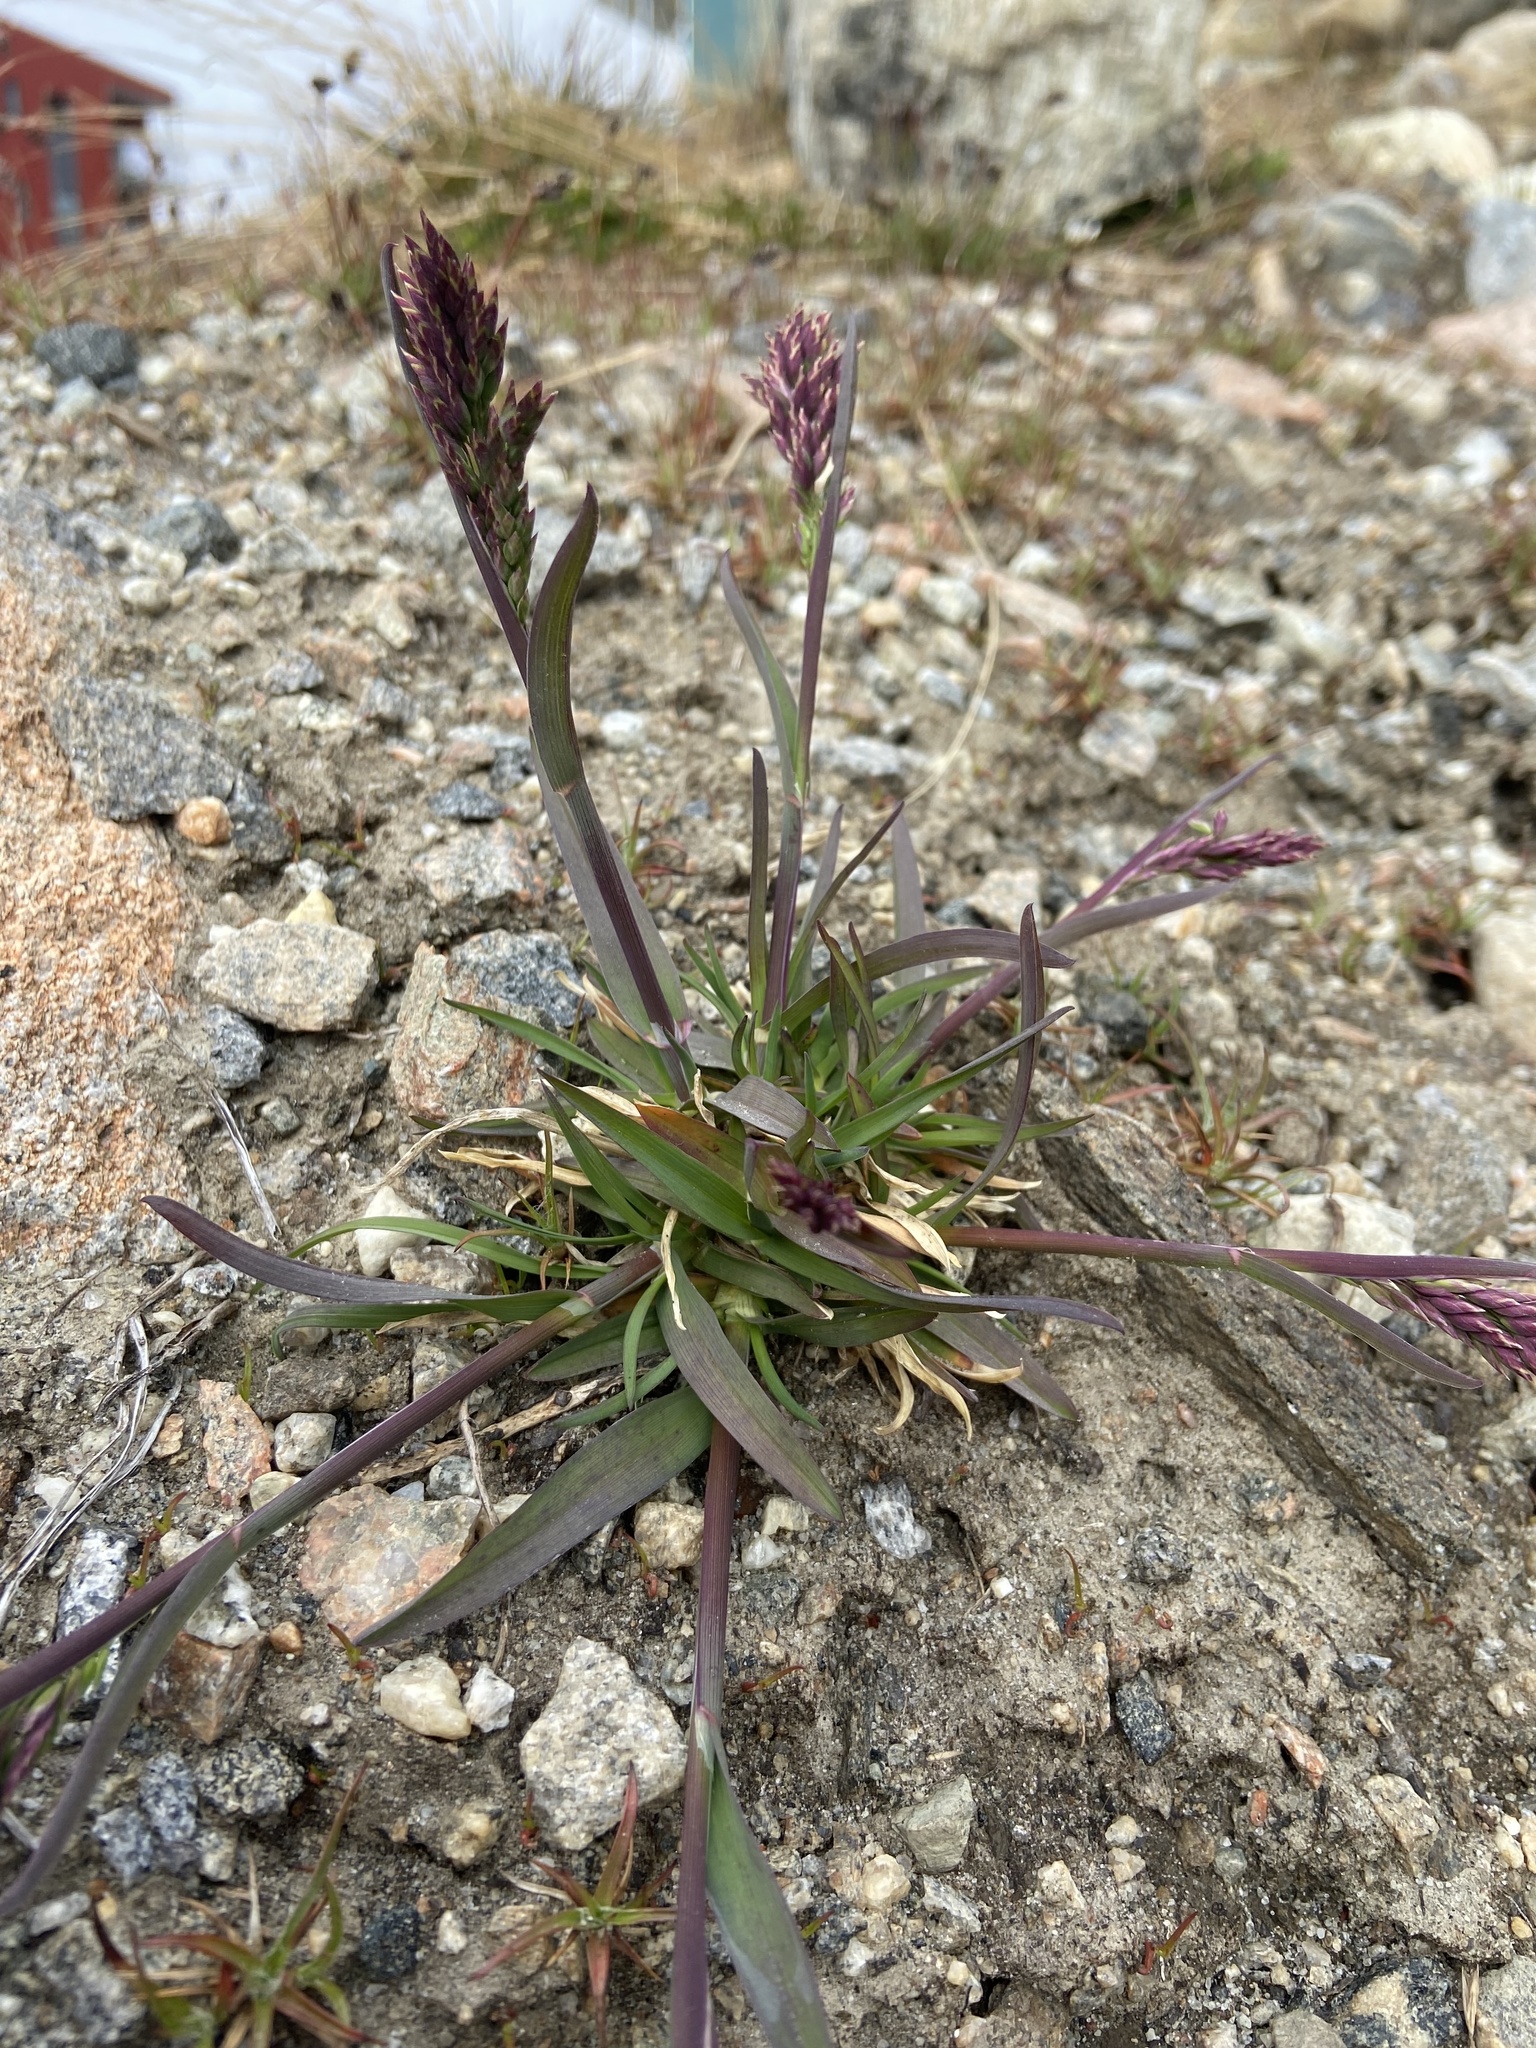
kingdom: Plantae
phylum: Tracheophyta
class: Liliopsida
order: Poales
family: Poaceae
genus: Poa
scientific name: Poa alpina
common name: Alpine bluegrass
